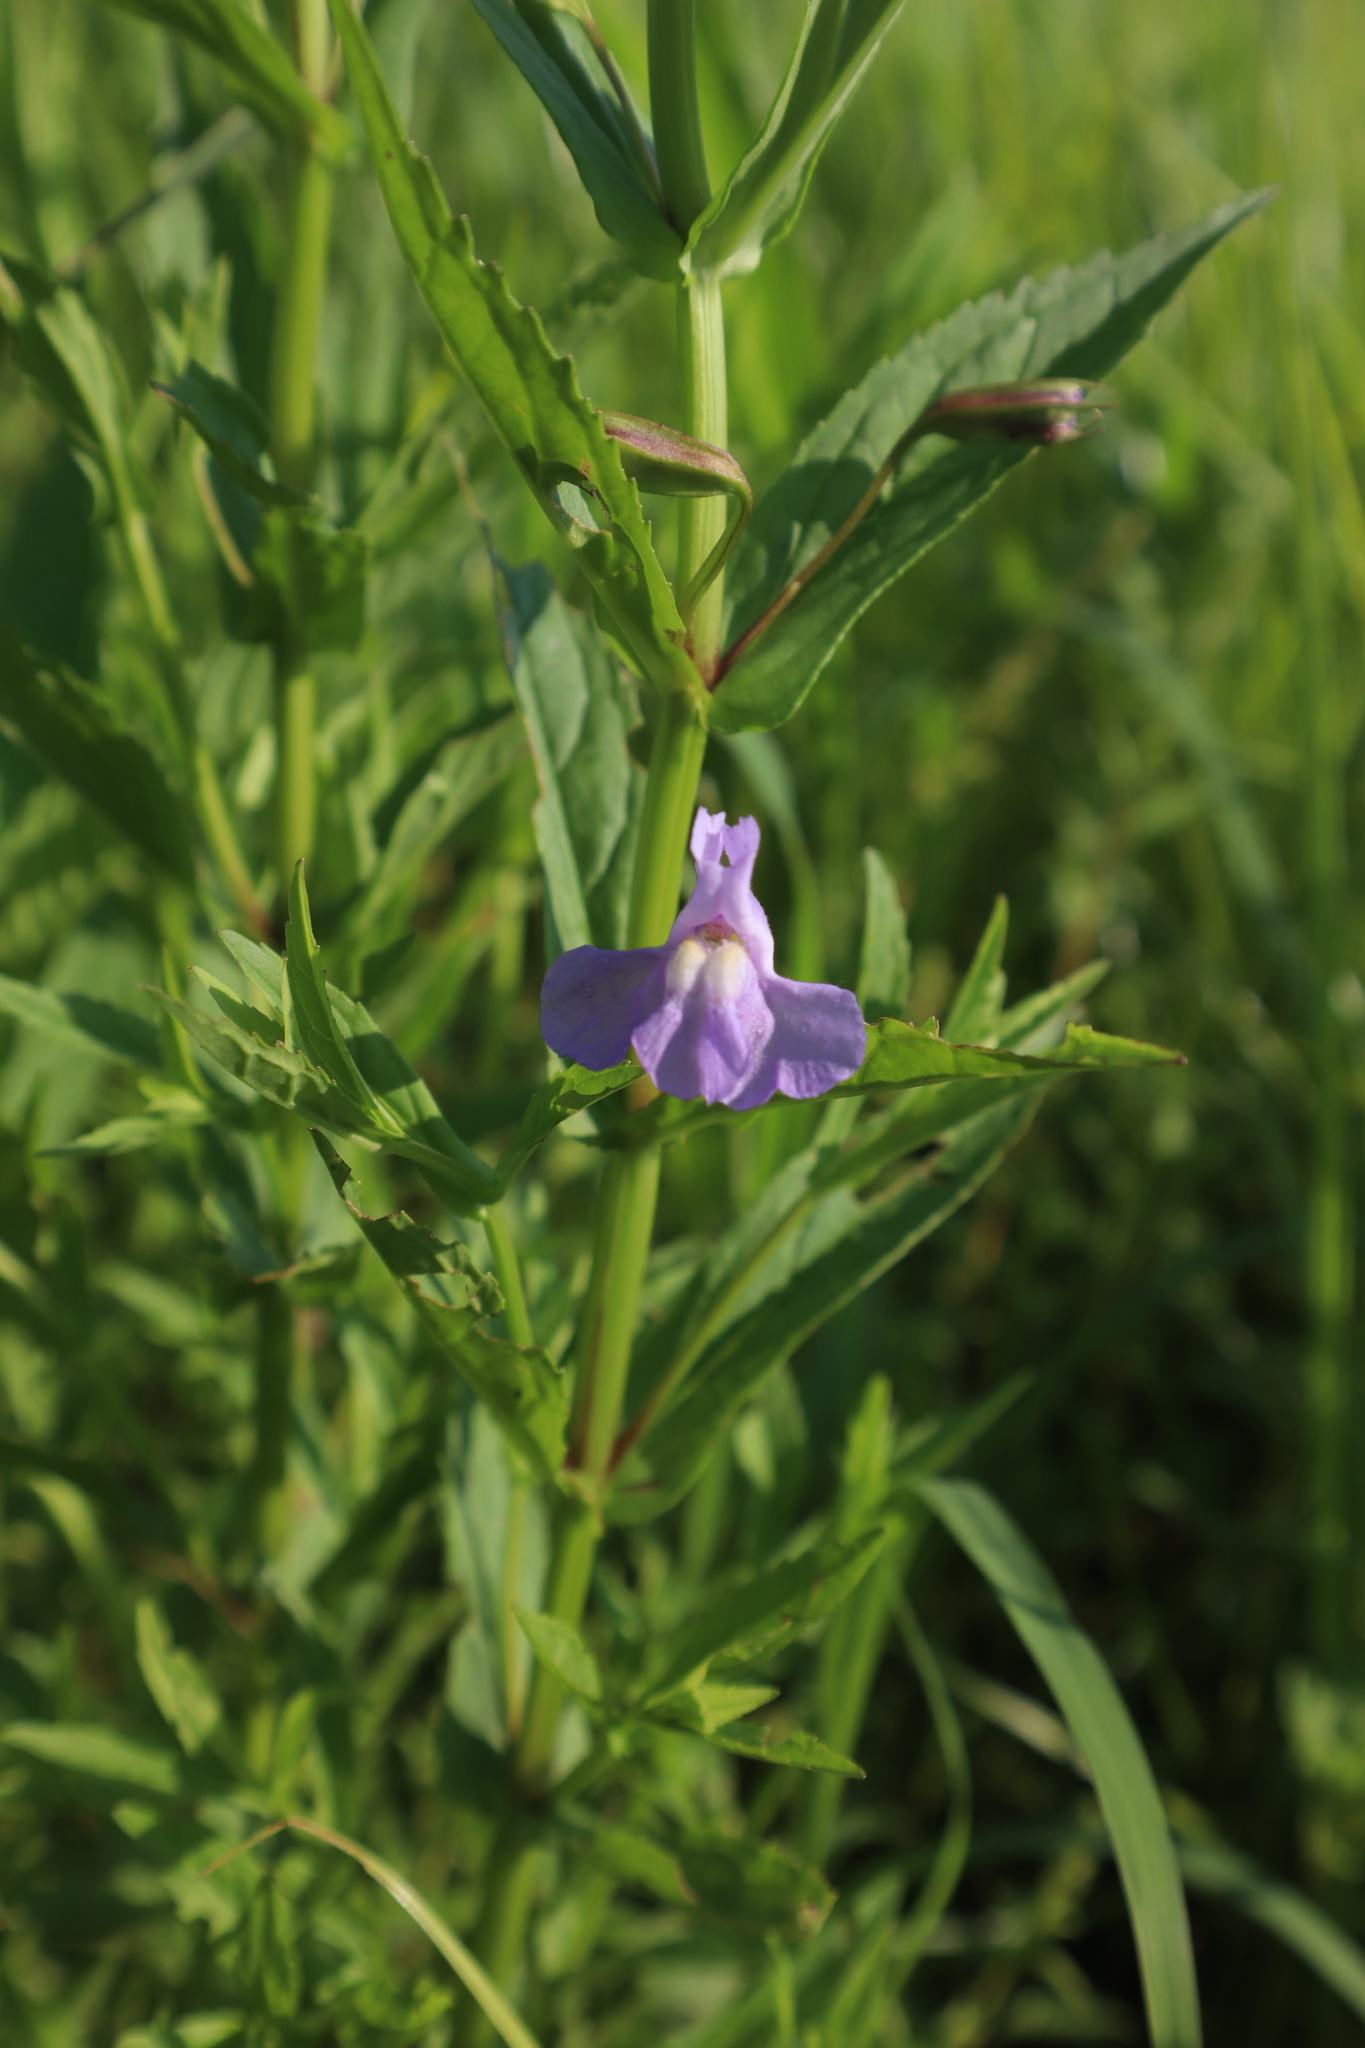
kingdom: Plantae
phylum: Tracheophyta
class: Magnoliopsida
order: Lamiales
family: Phrymaceae
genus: Mimulus
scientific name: Mimulus ringens
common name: Allegheny monkeyflower
